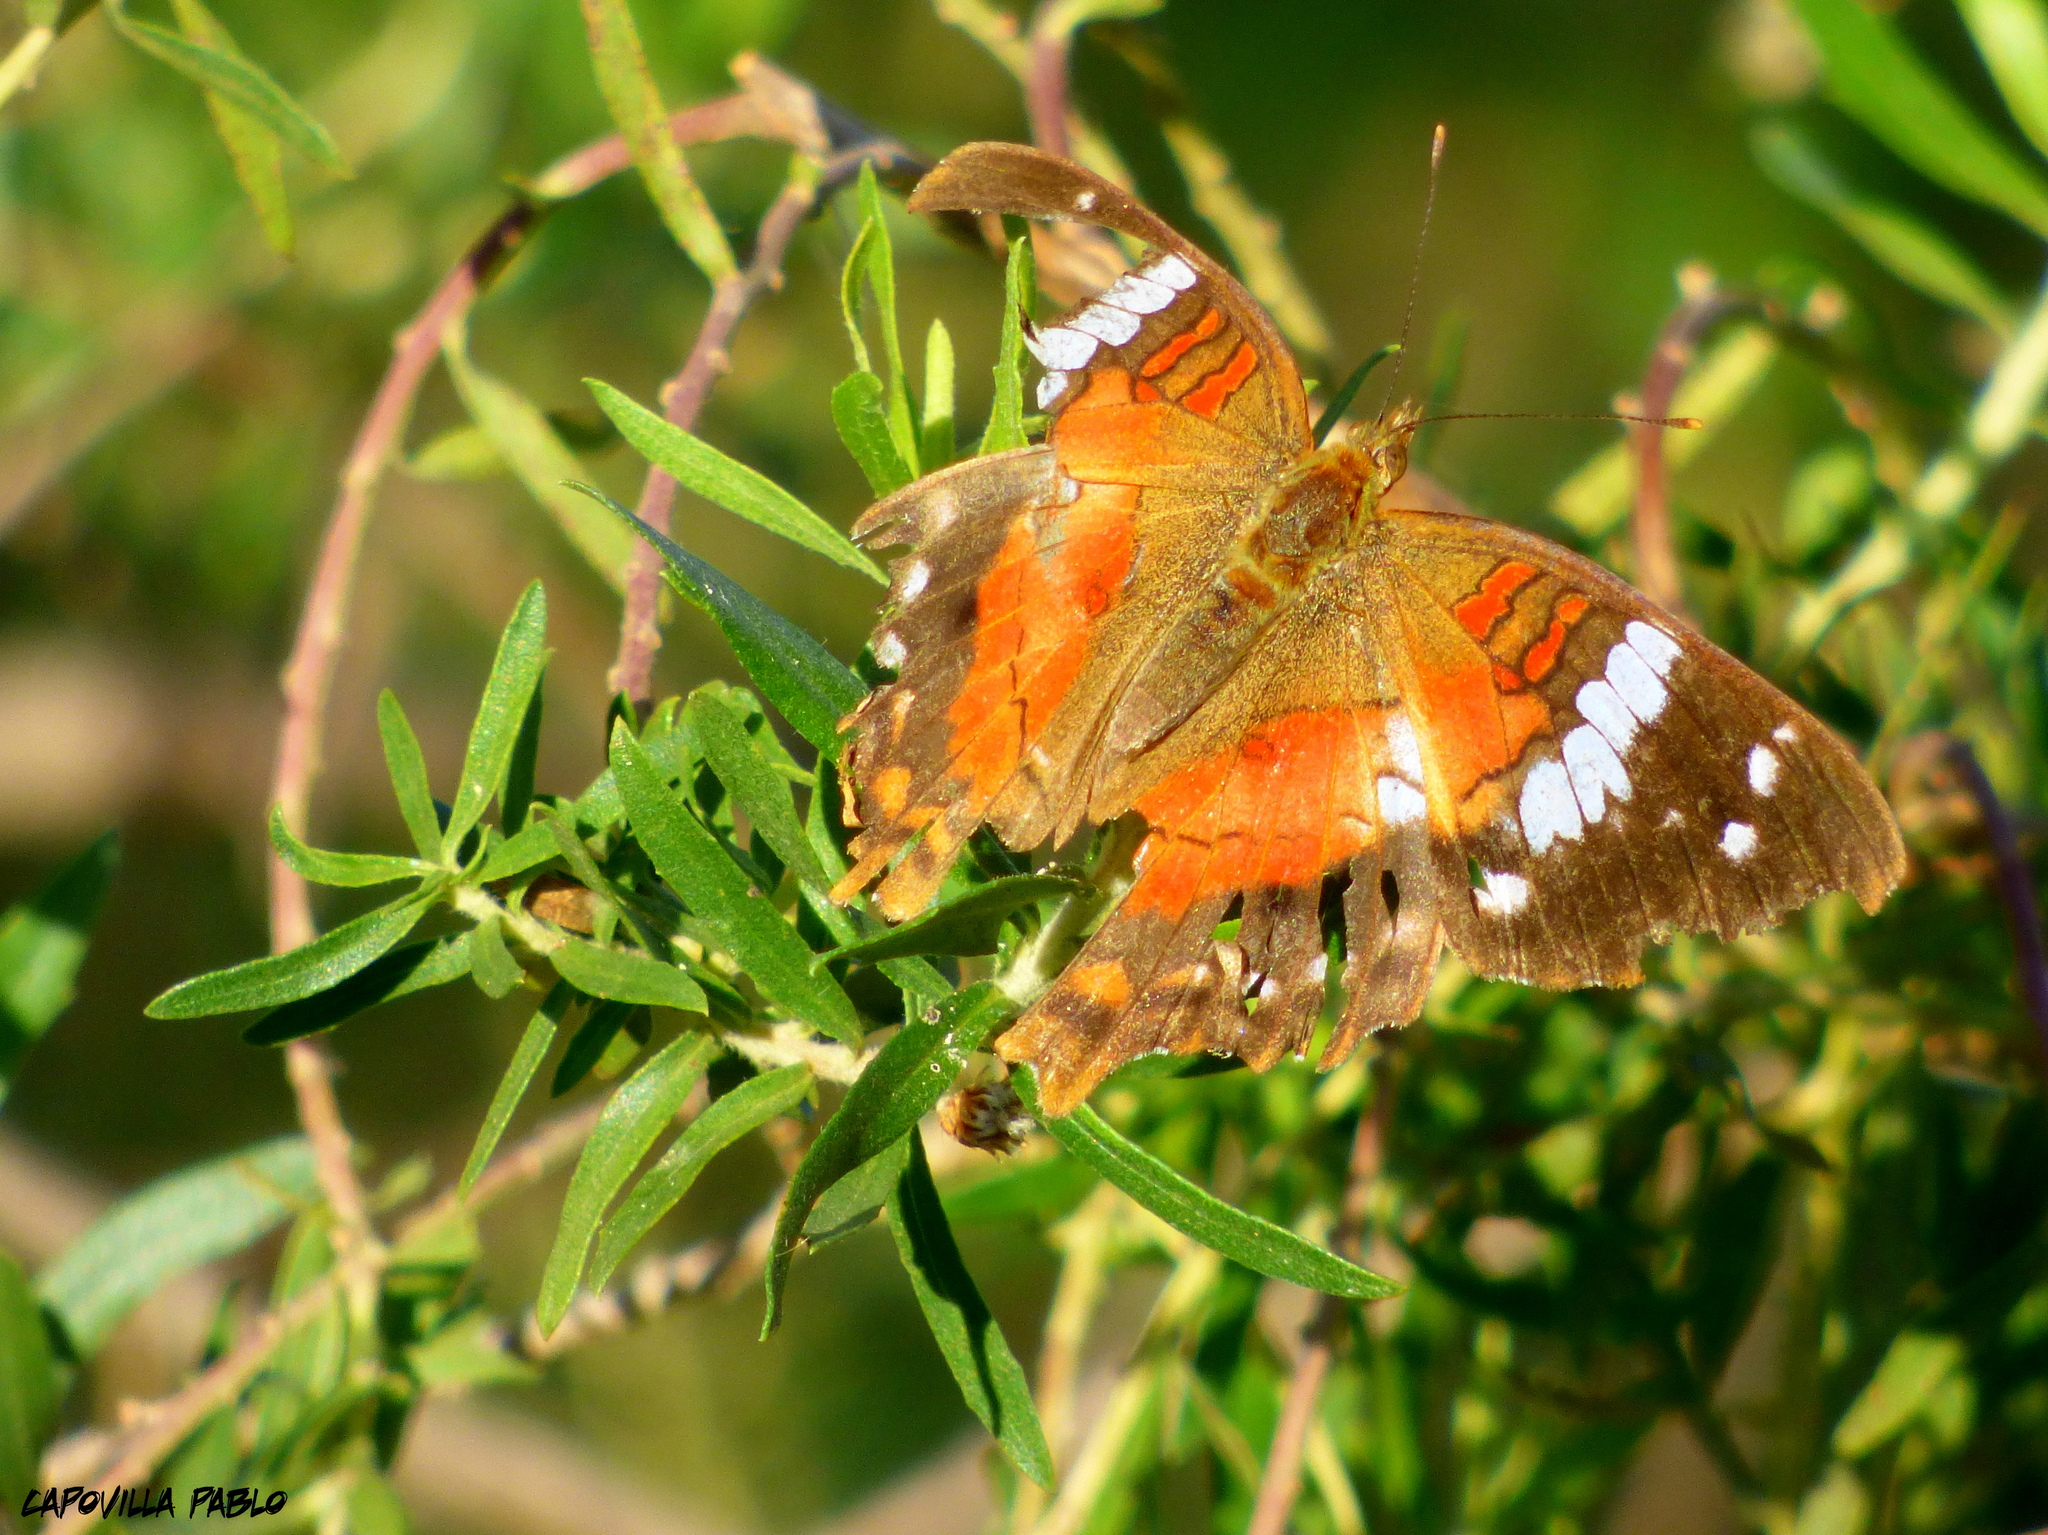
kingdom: Animalia
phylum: Arthropoda
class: Insecta
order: Lepidoptera
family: Nymphalidae
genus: Anartia
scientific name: Anartia amathea
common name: Red peacock
